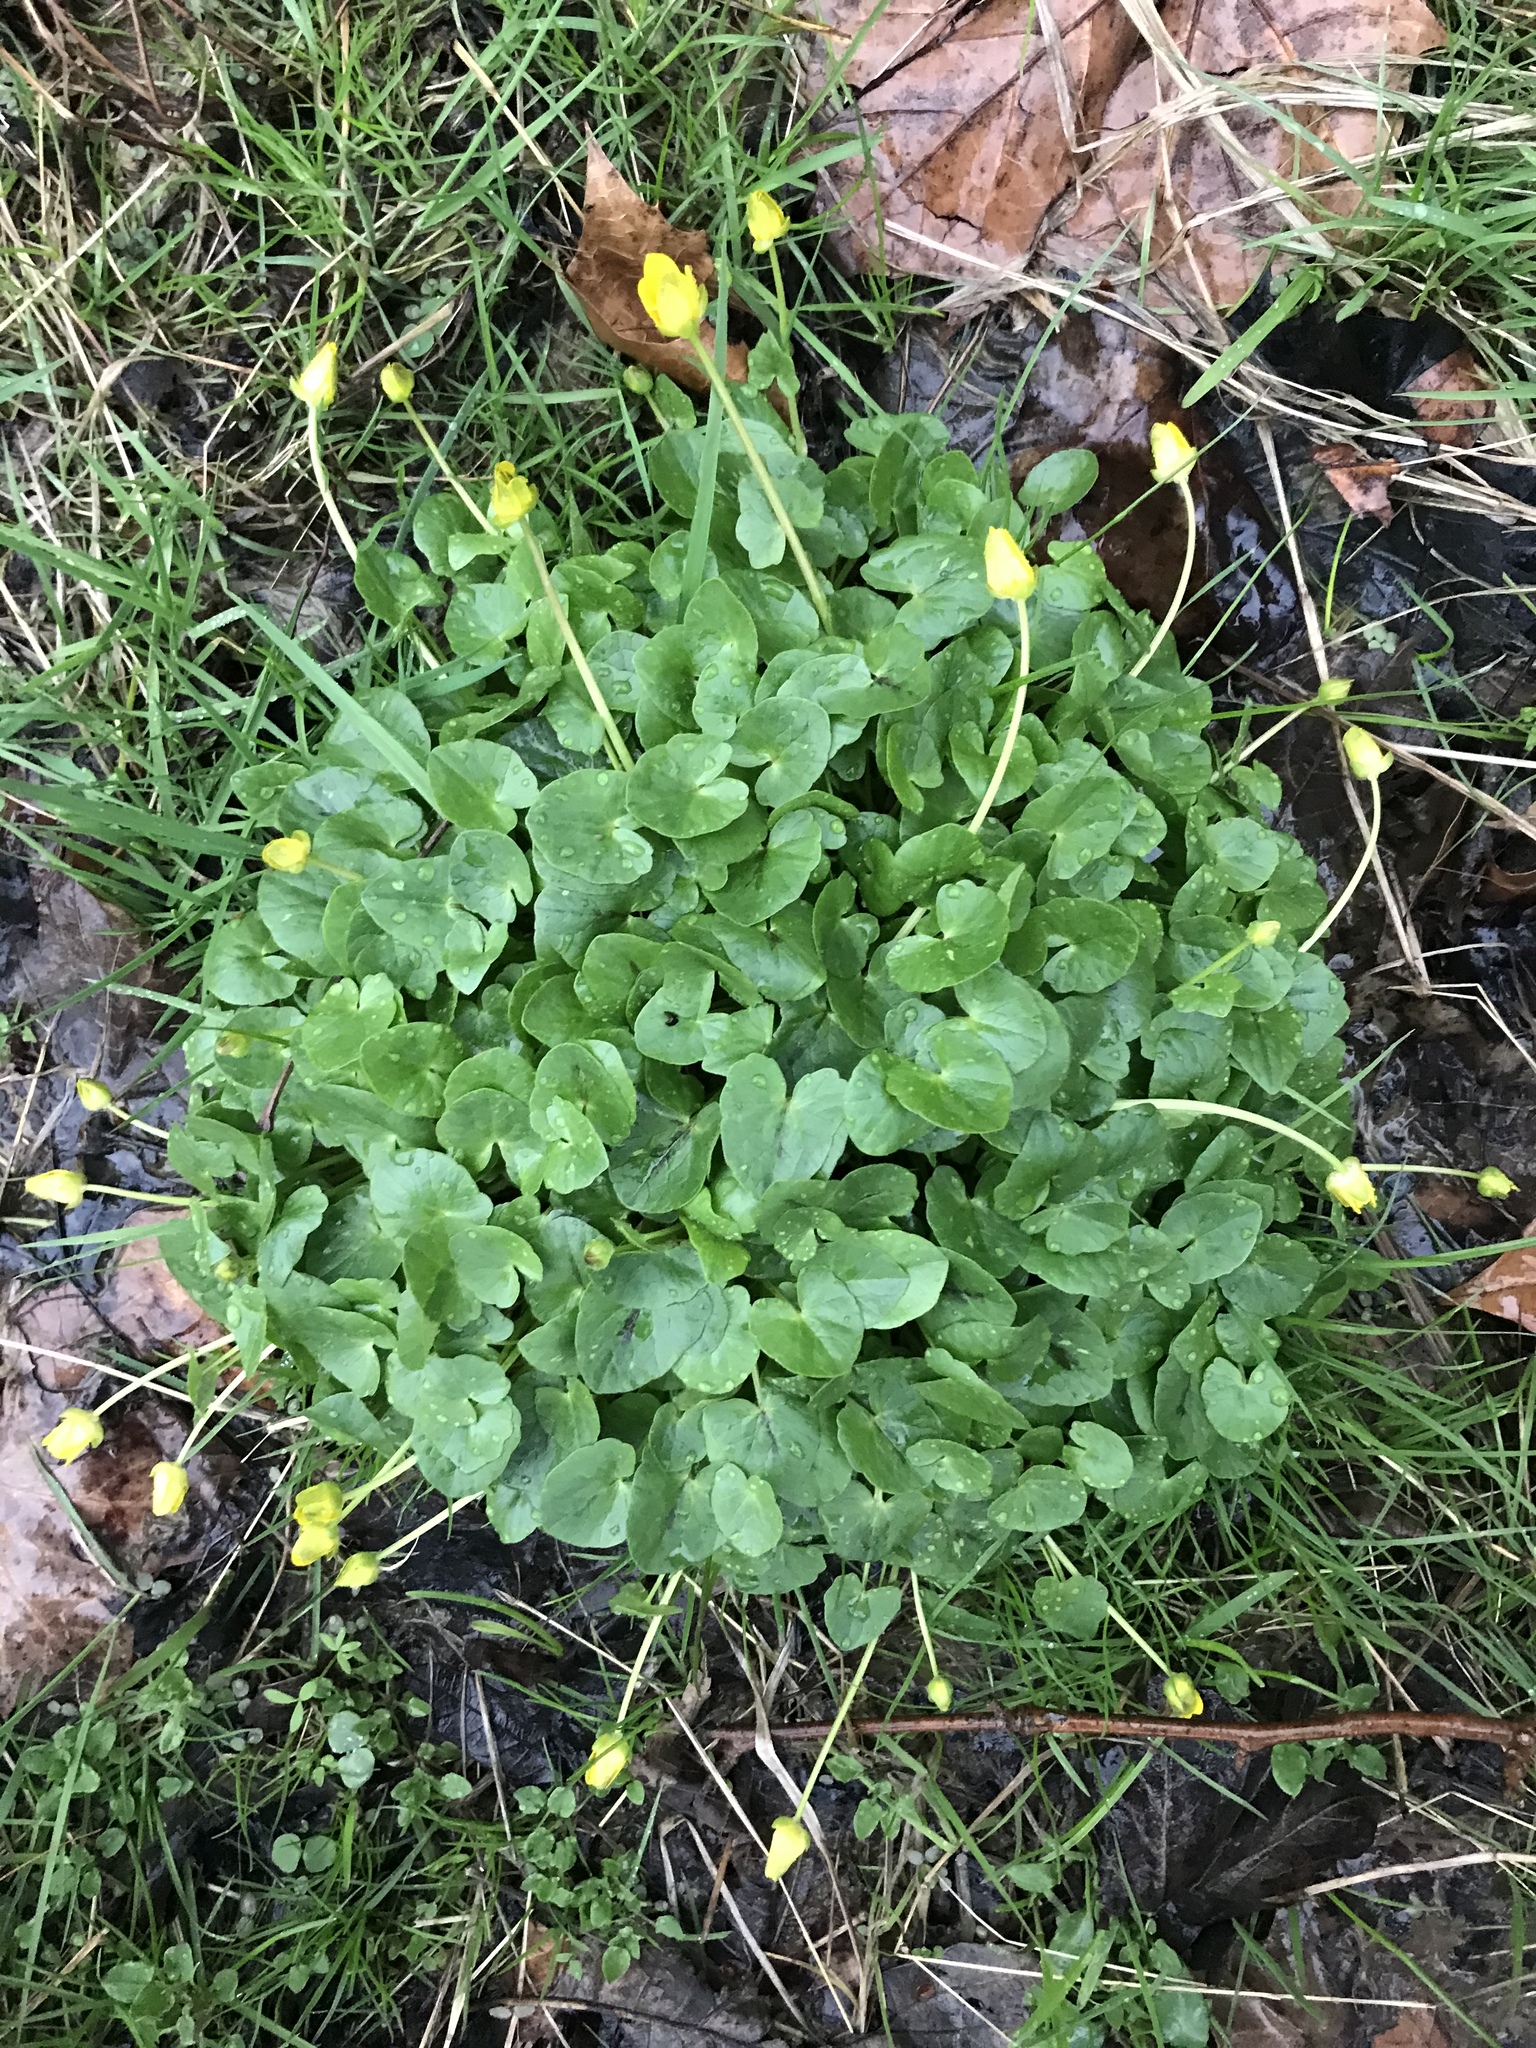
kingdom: Plantae
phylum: Tracheophyta
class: Magnoliopsida
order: Ranunculales
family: Ranunculaceae
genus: Ficaria
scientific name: Ficaria verna
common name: Lesser celandine
